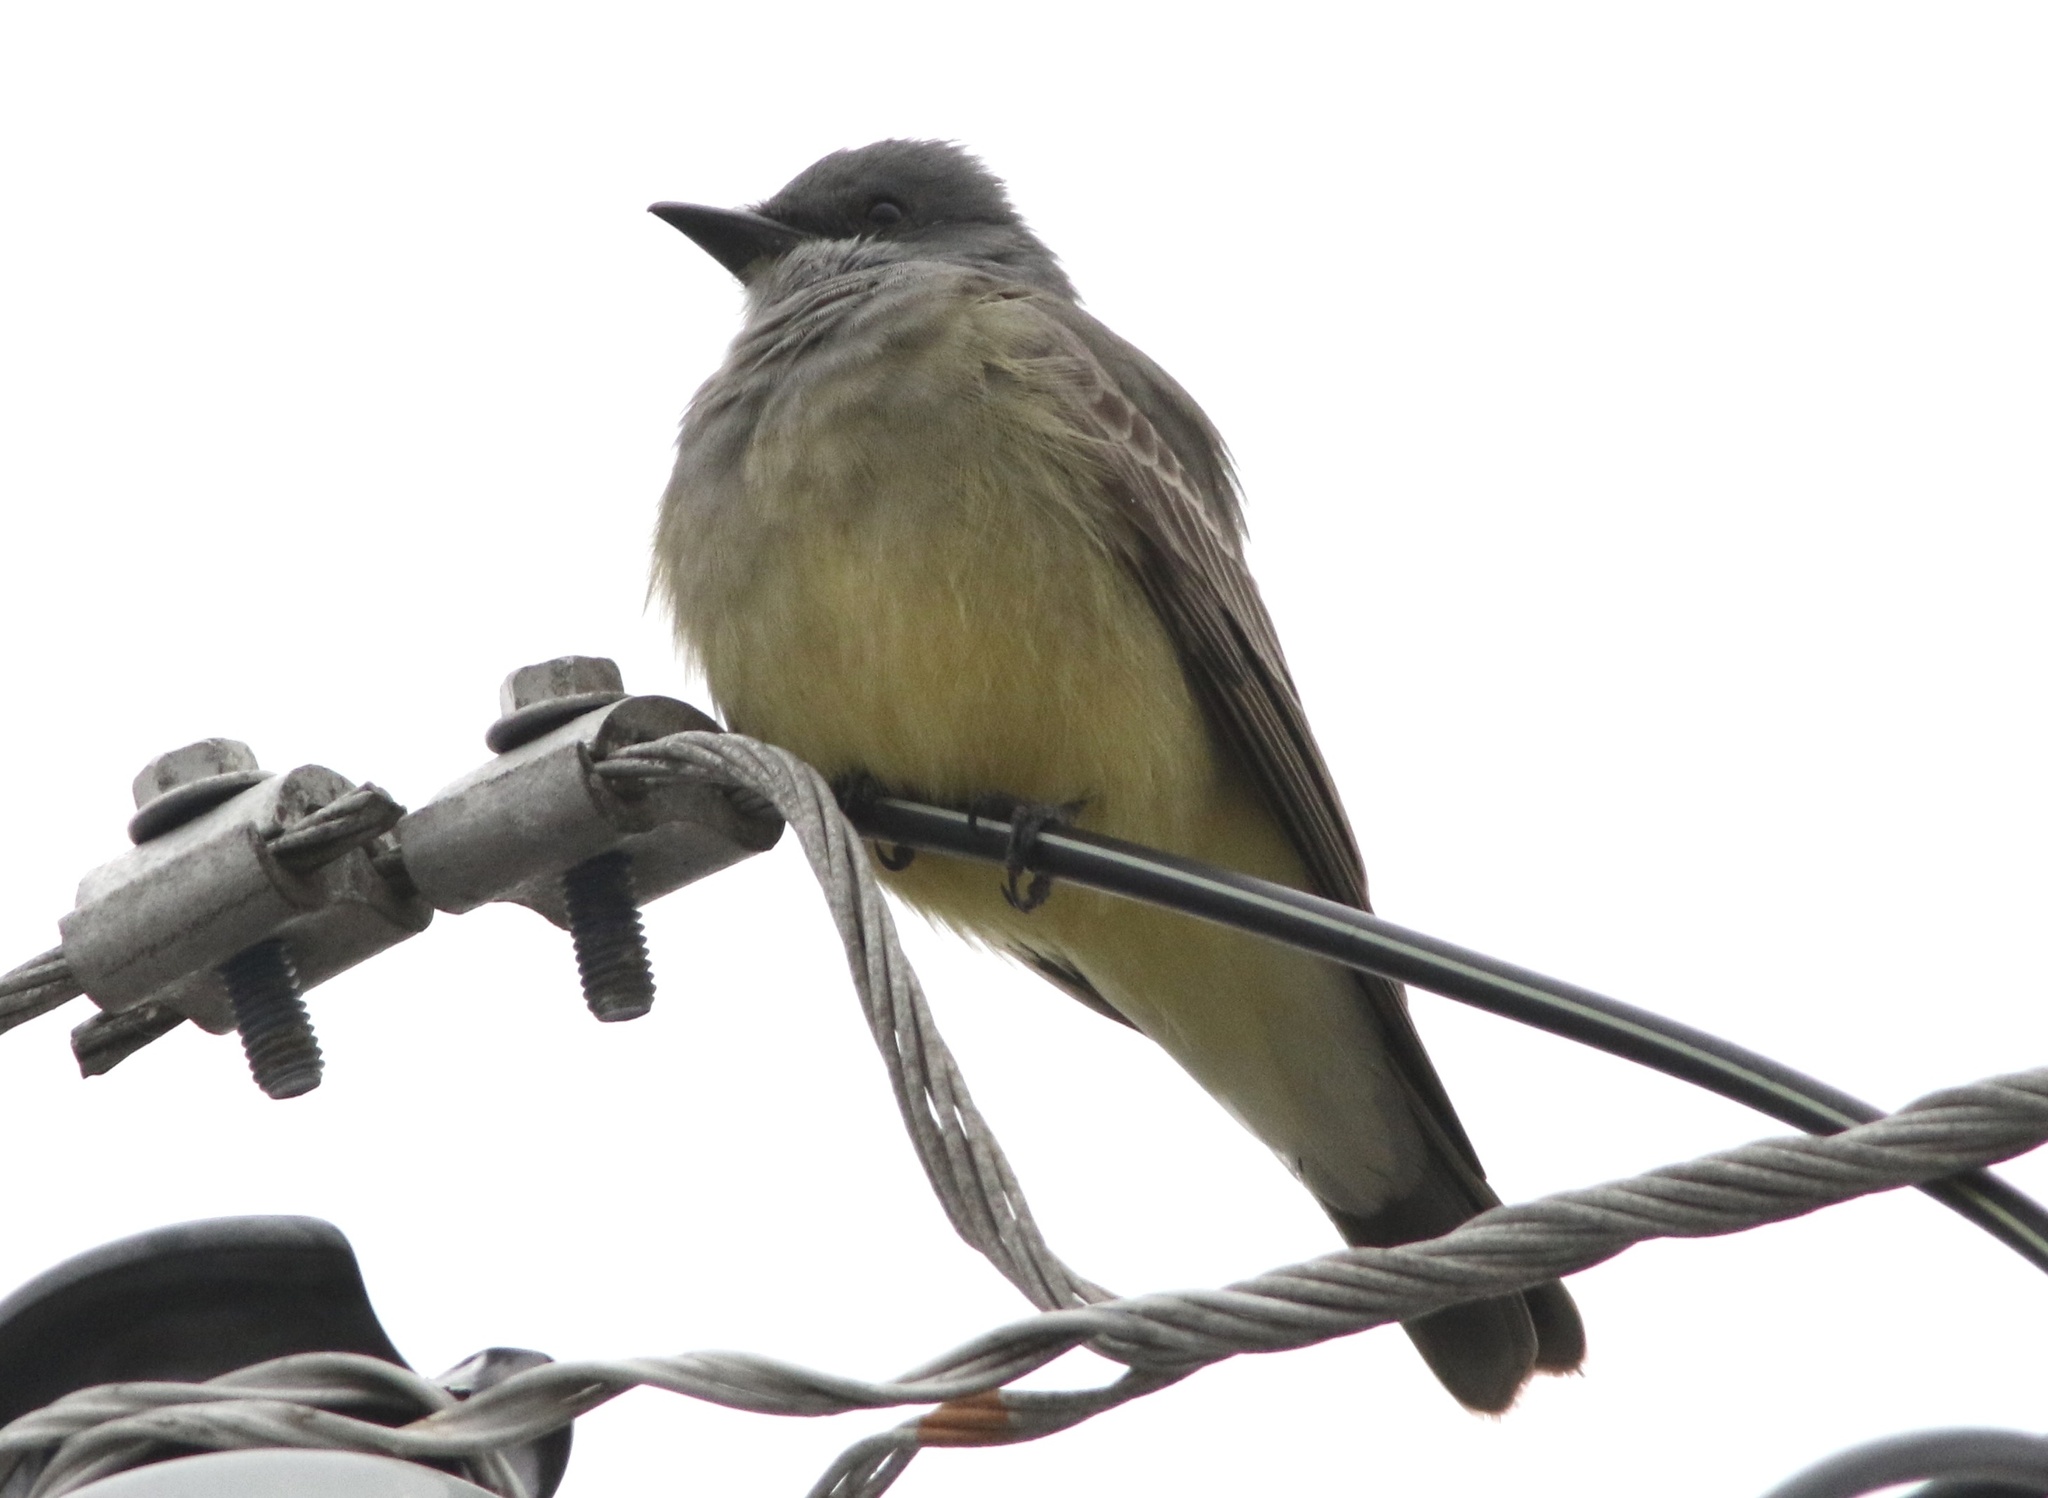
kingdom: Animalia
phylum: Chordata
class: Aves
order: Passeriformes
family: Tyrannidae
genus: Tyrannus
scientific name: Tyrannus vociferans
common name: Cassin's kingbird
